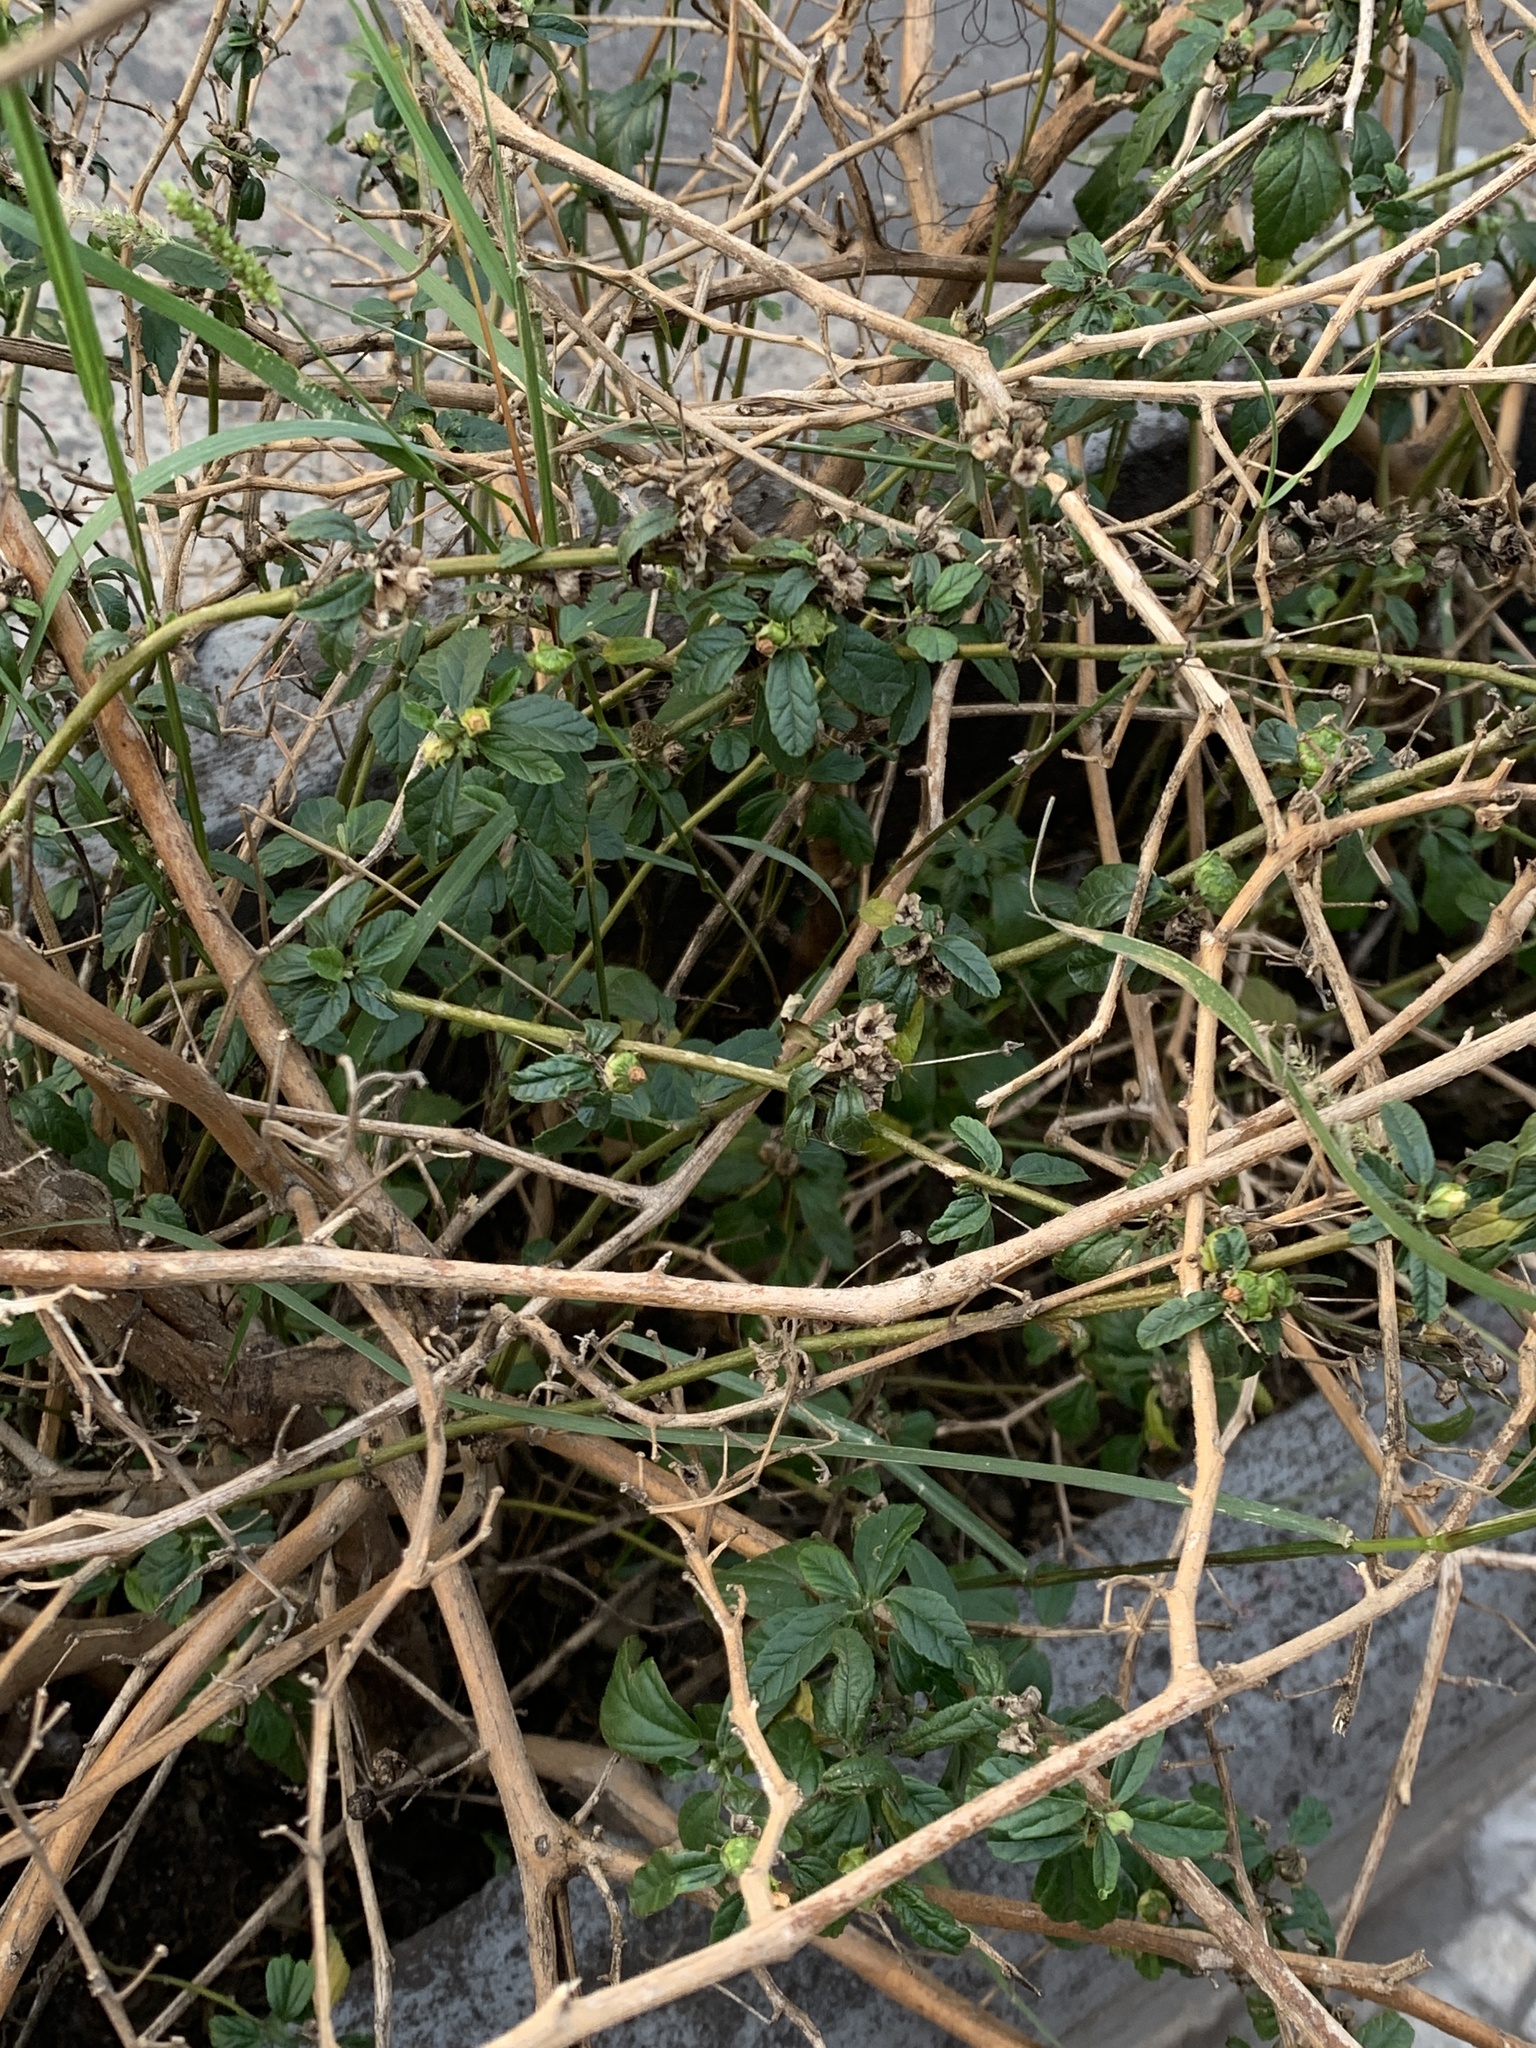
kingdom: Plantae
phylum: Tracheophyta
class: Magnoliopsida
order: Malvales
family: Malvaceae
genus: Sida
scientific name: Sida rhombifolia
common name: Queensland-hemp
